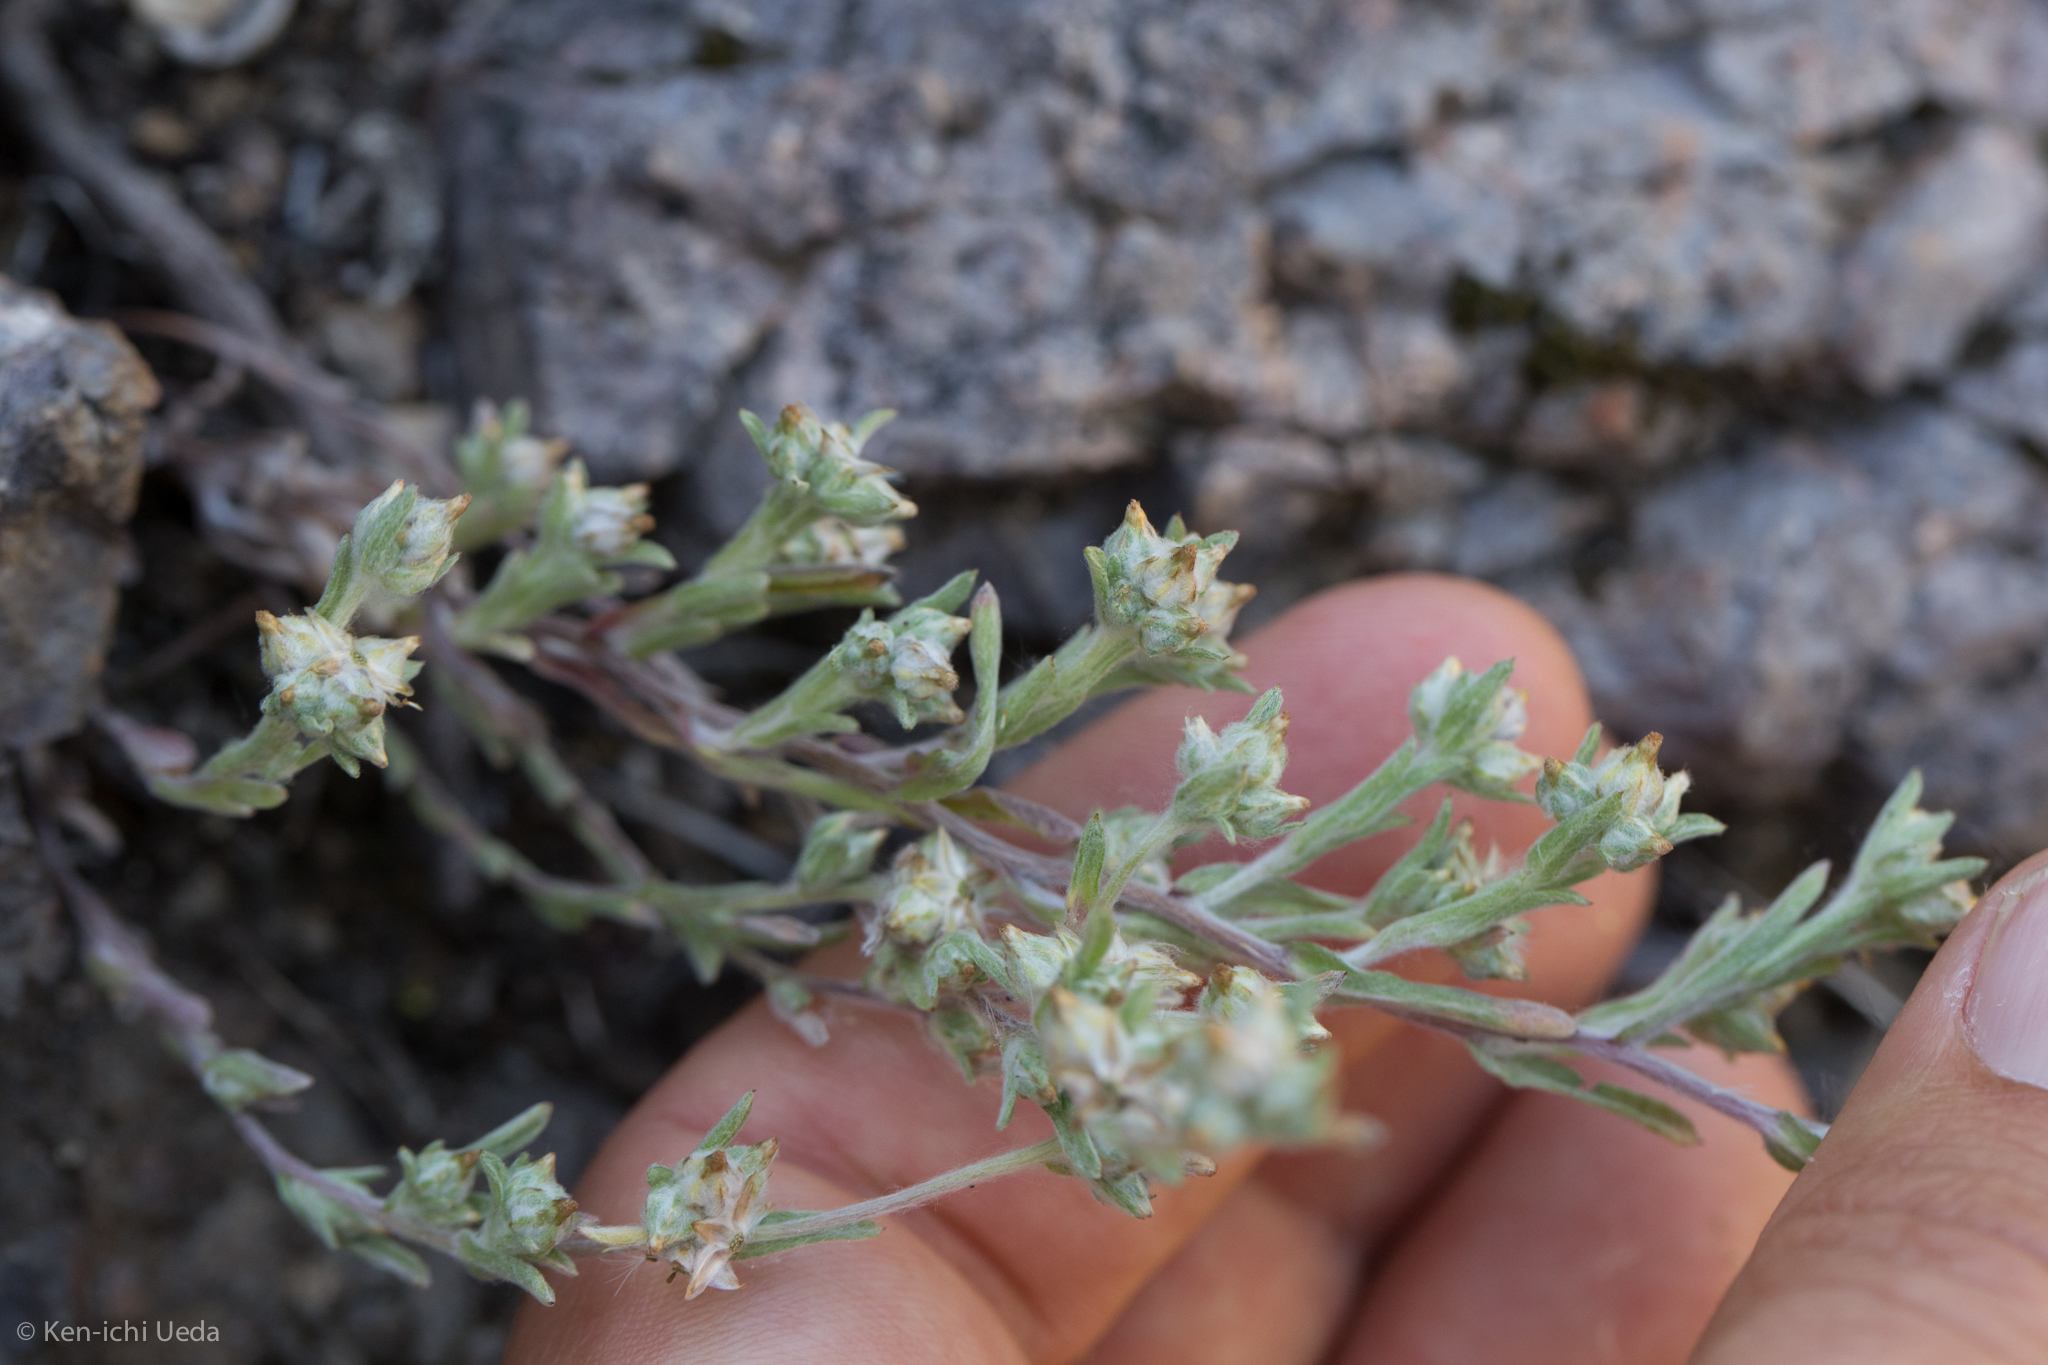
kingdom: Plantae
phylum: Tracheophyta
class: Magnoliopsida
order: Asterales
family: Asteraceae
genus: Logfia
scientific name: Logfia californica
